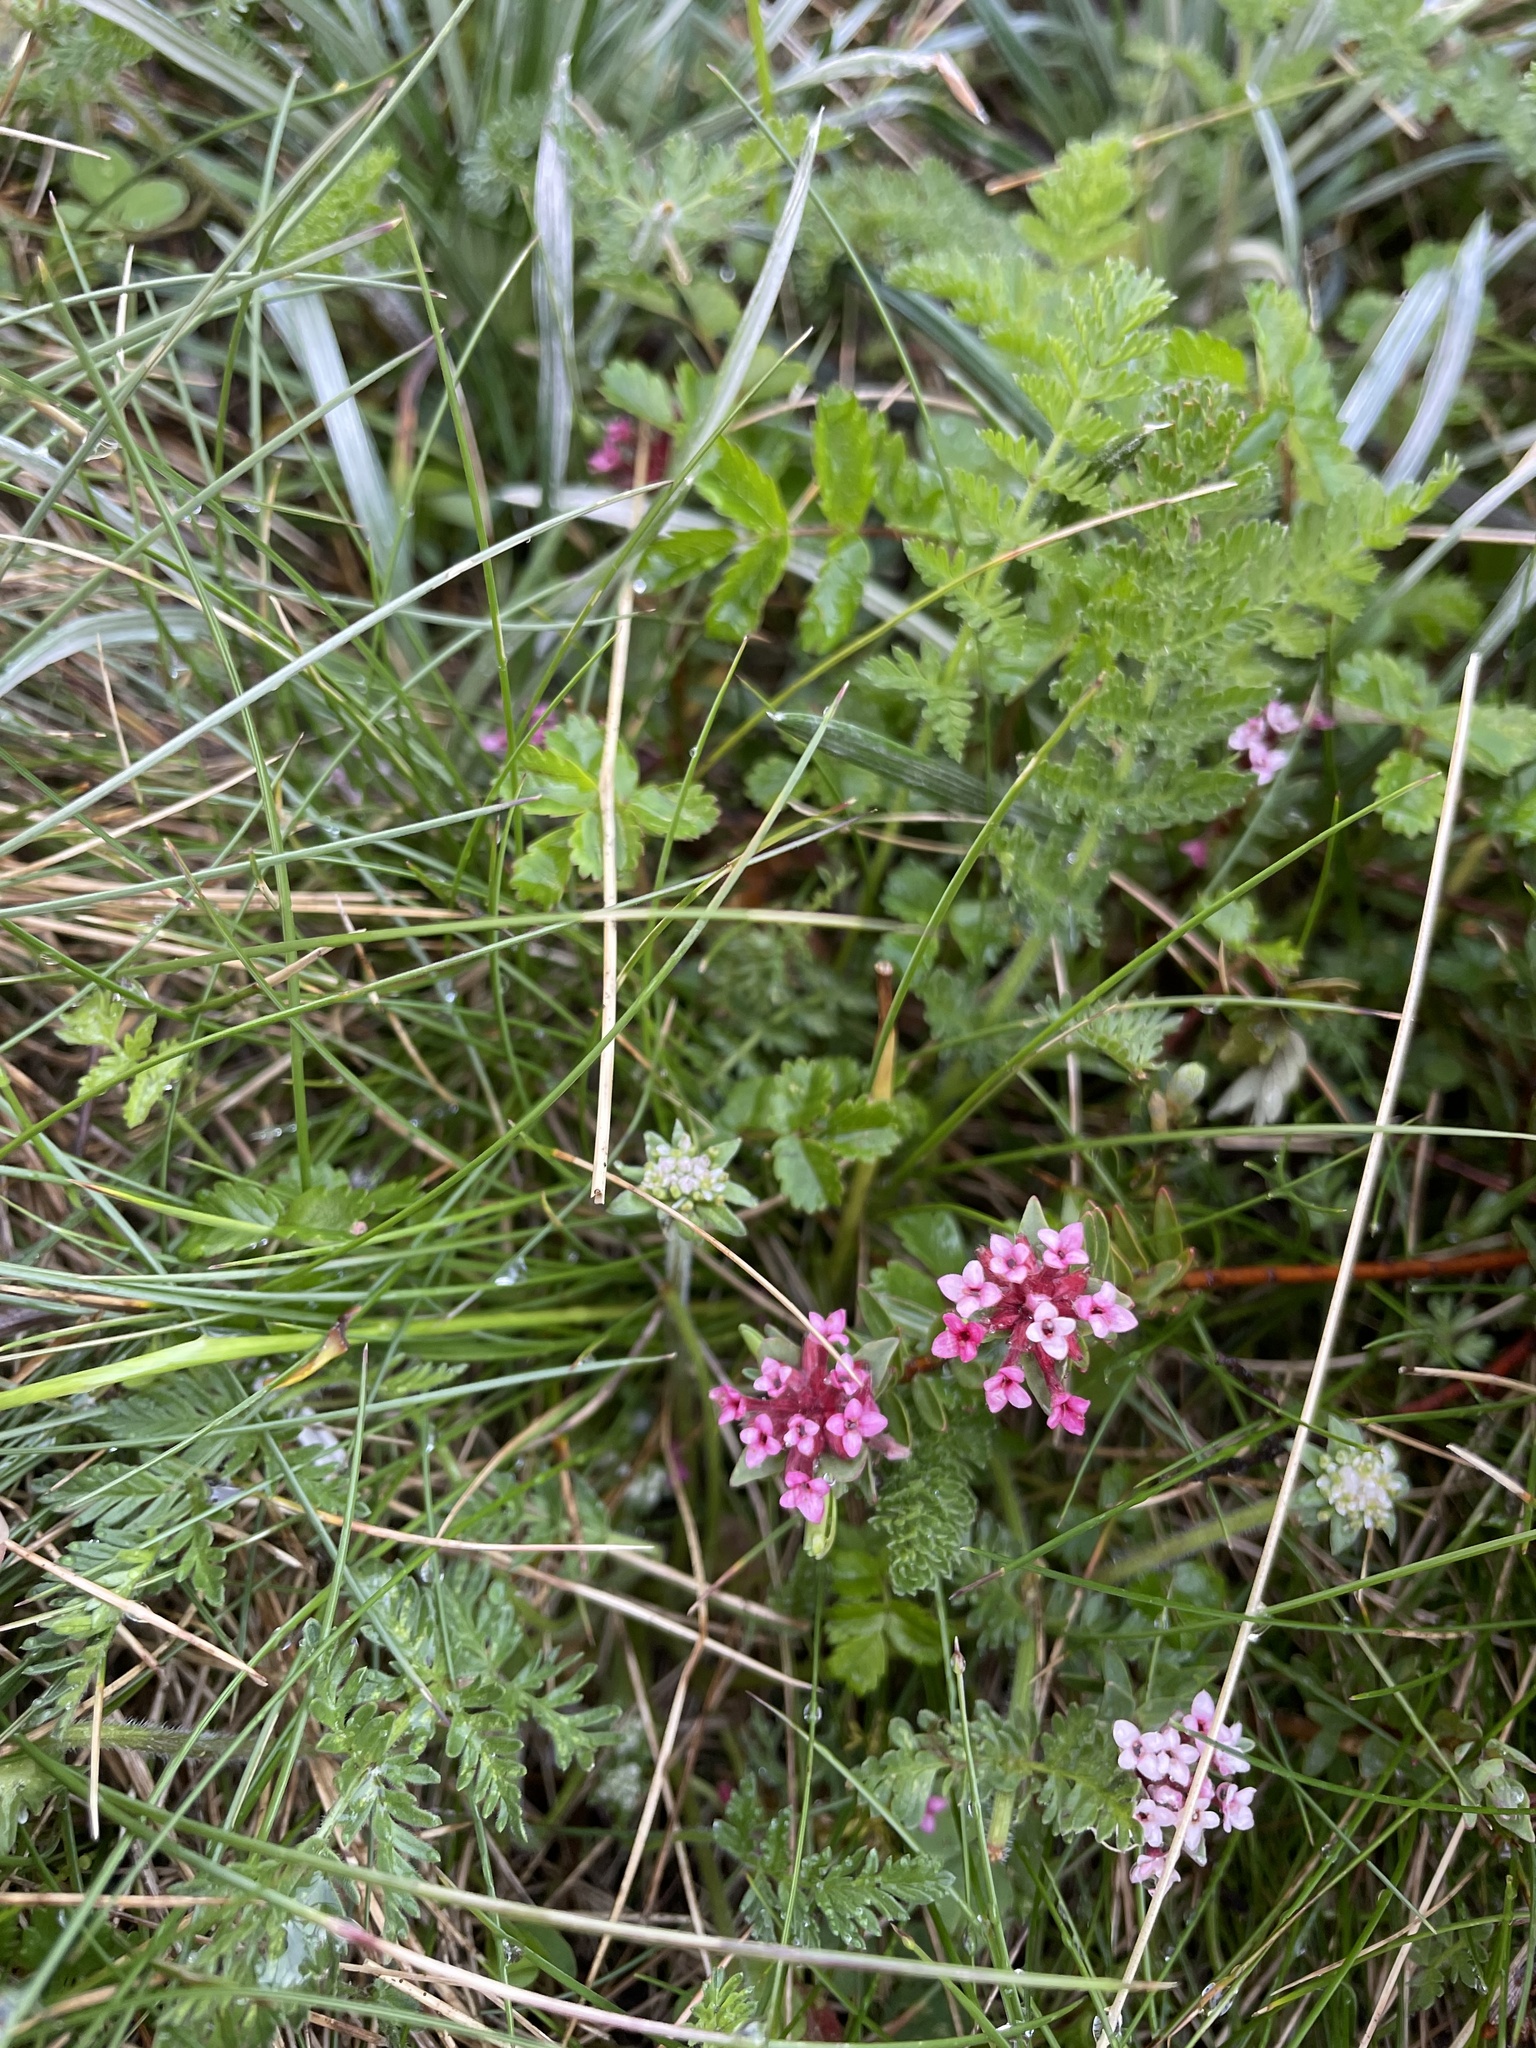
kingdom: Plantae
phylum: Tracheophyta
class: Magnoliopsida
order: Malvales
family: Thymelaeaceae
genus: Pimelea
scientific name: Pimelea alpina
